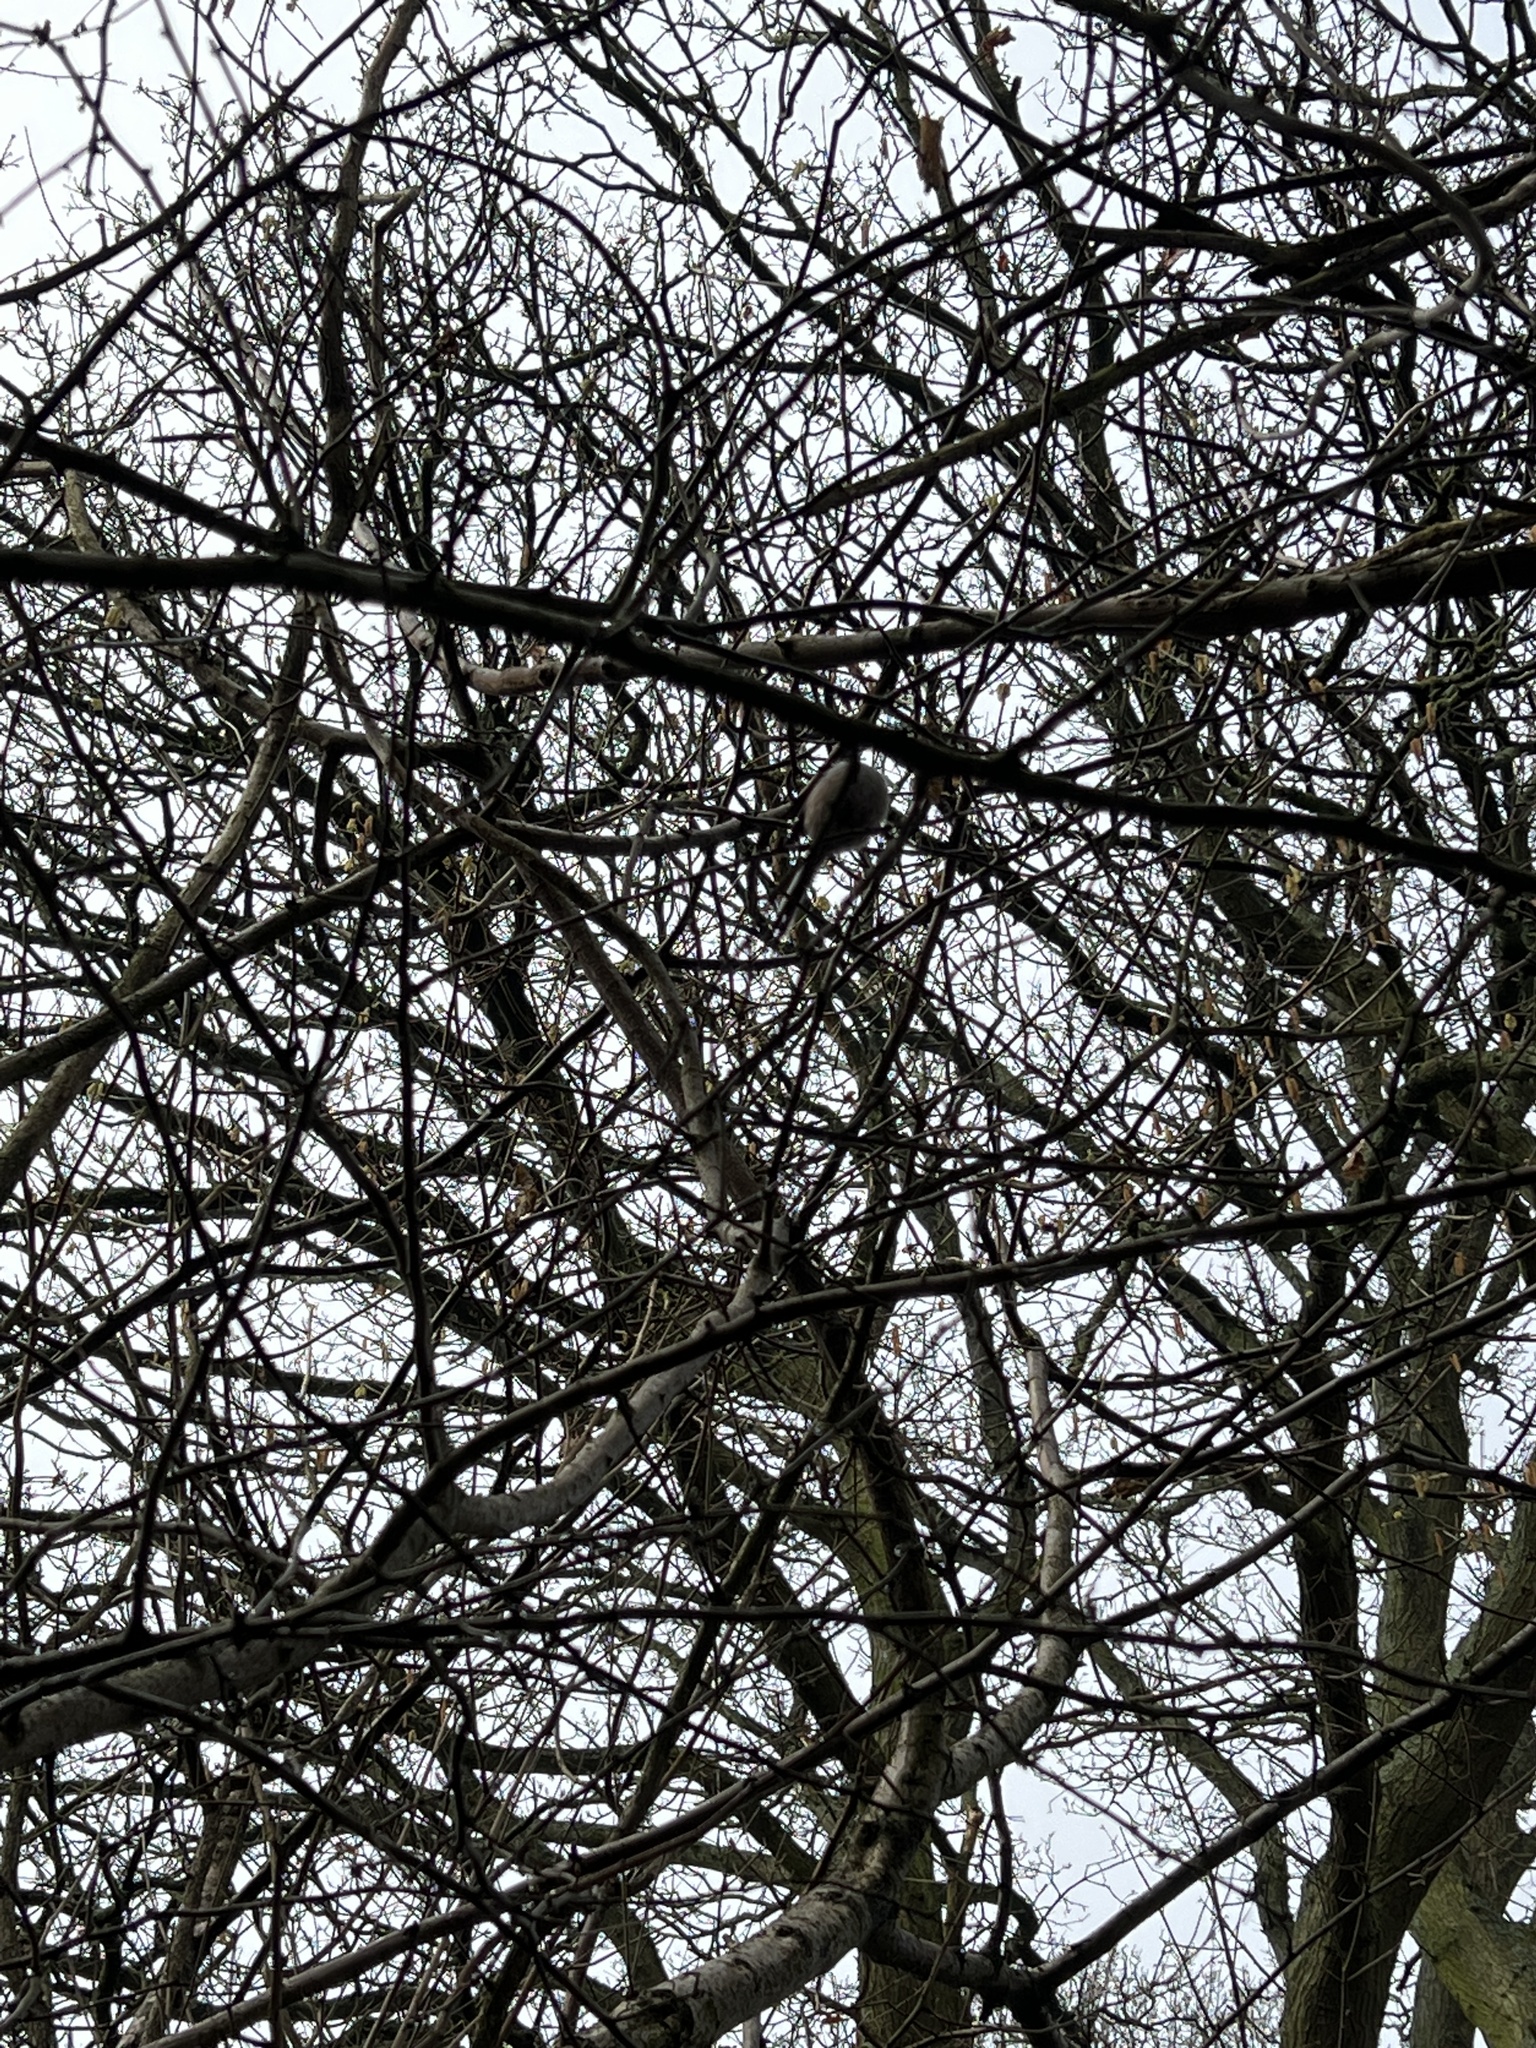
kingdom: Animalia
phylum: Chordata
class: Aves
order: Passeriformes
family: Aegithalidae
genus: Aegithalos
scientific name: Aegithalos caudatus
